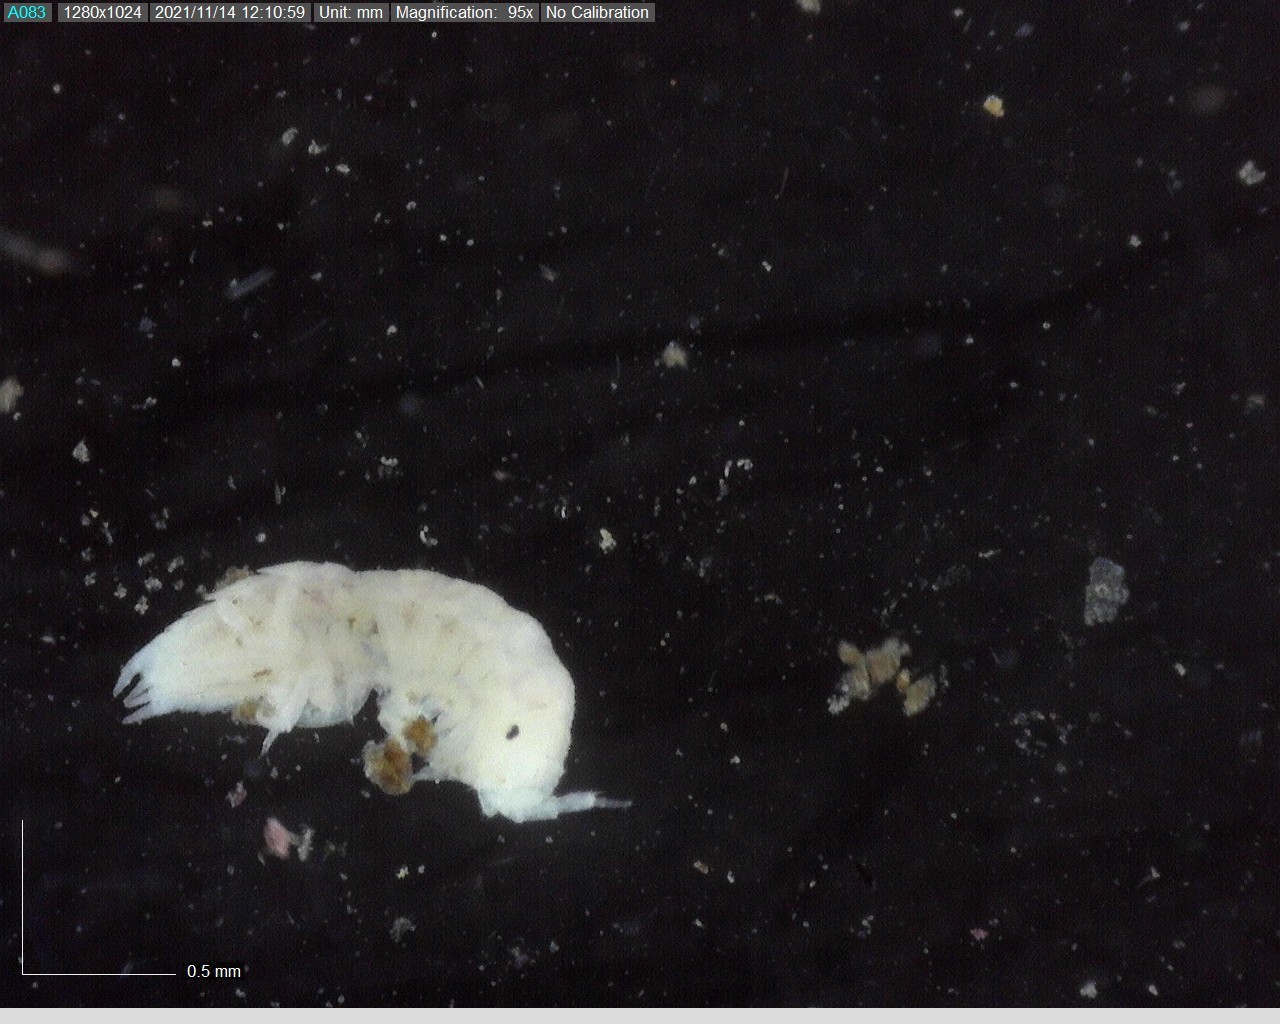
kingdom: Animalia
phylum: Arthropoda
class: Malacostraca
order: Isopoda
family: Trichoniscidae
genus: Trichoniscus
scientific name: Trichoniscus pygmaeus
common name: Isopod
